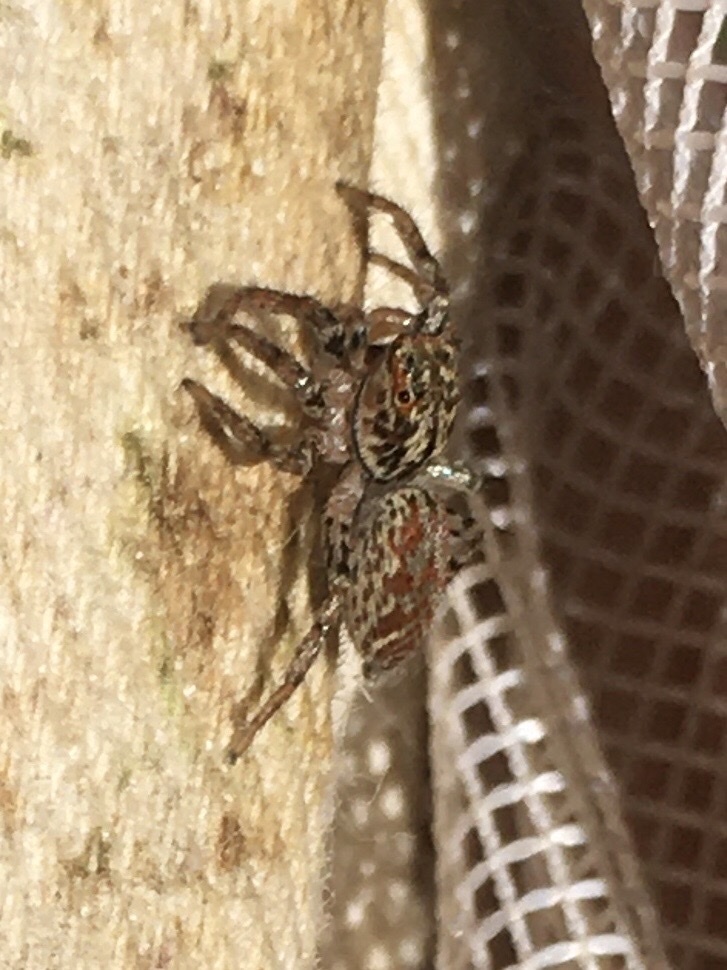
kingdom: Animalia
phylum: Arthropoda
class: Arachnida
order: Araneae
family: Salticidae
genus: Maevia
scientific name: Maevia inclemens
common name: Dimorphic jumper
